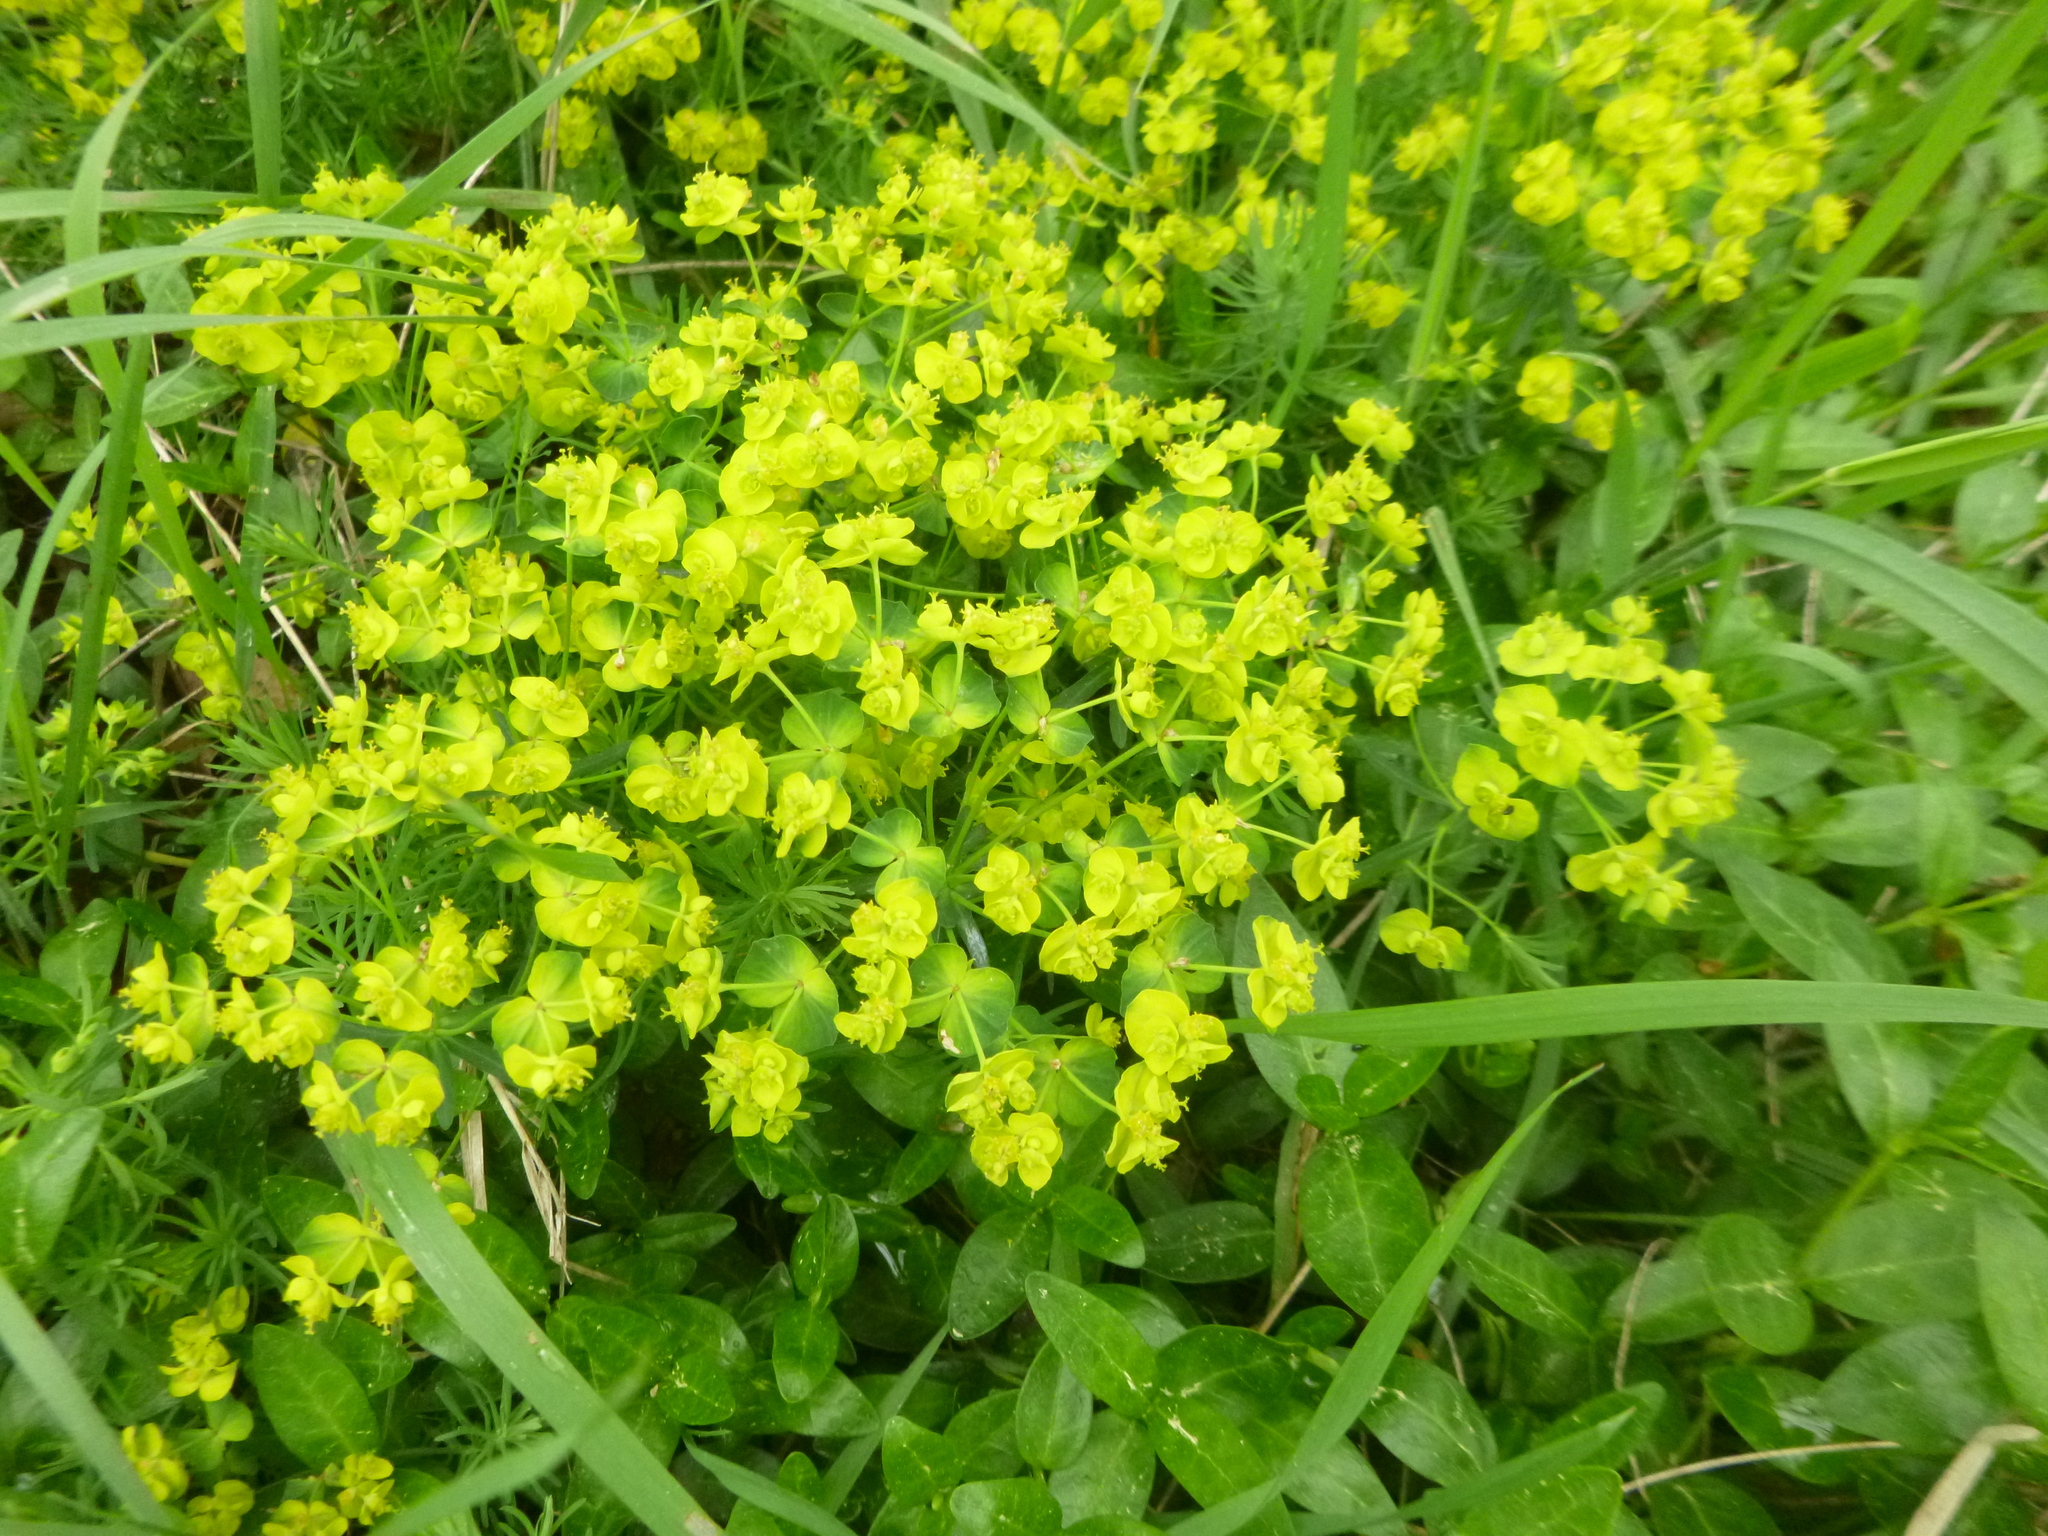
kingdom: Plantae
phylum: Tracheophyta
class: Magnoliopsida
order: Malpighiales
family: Euphorbiaceae
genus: Euphorbia
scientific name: Euphorbia cyparissias
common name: Cypress spurge
